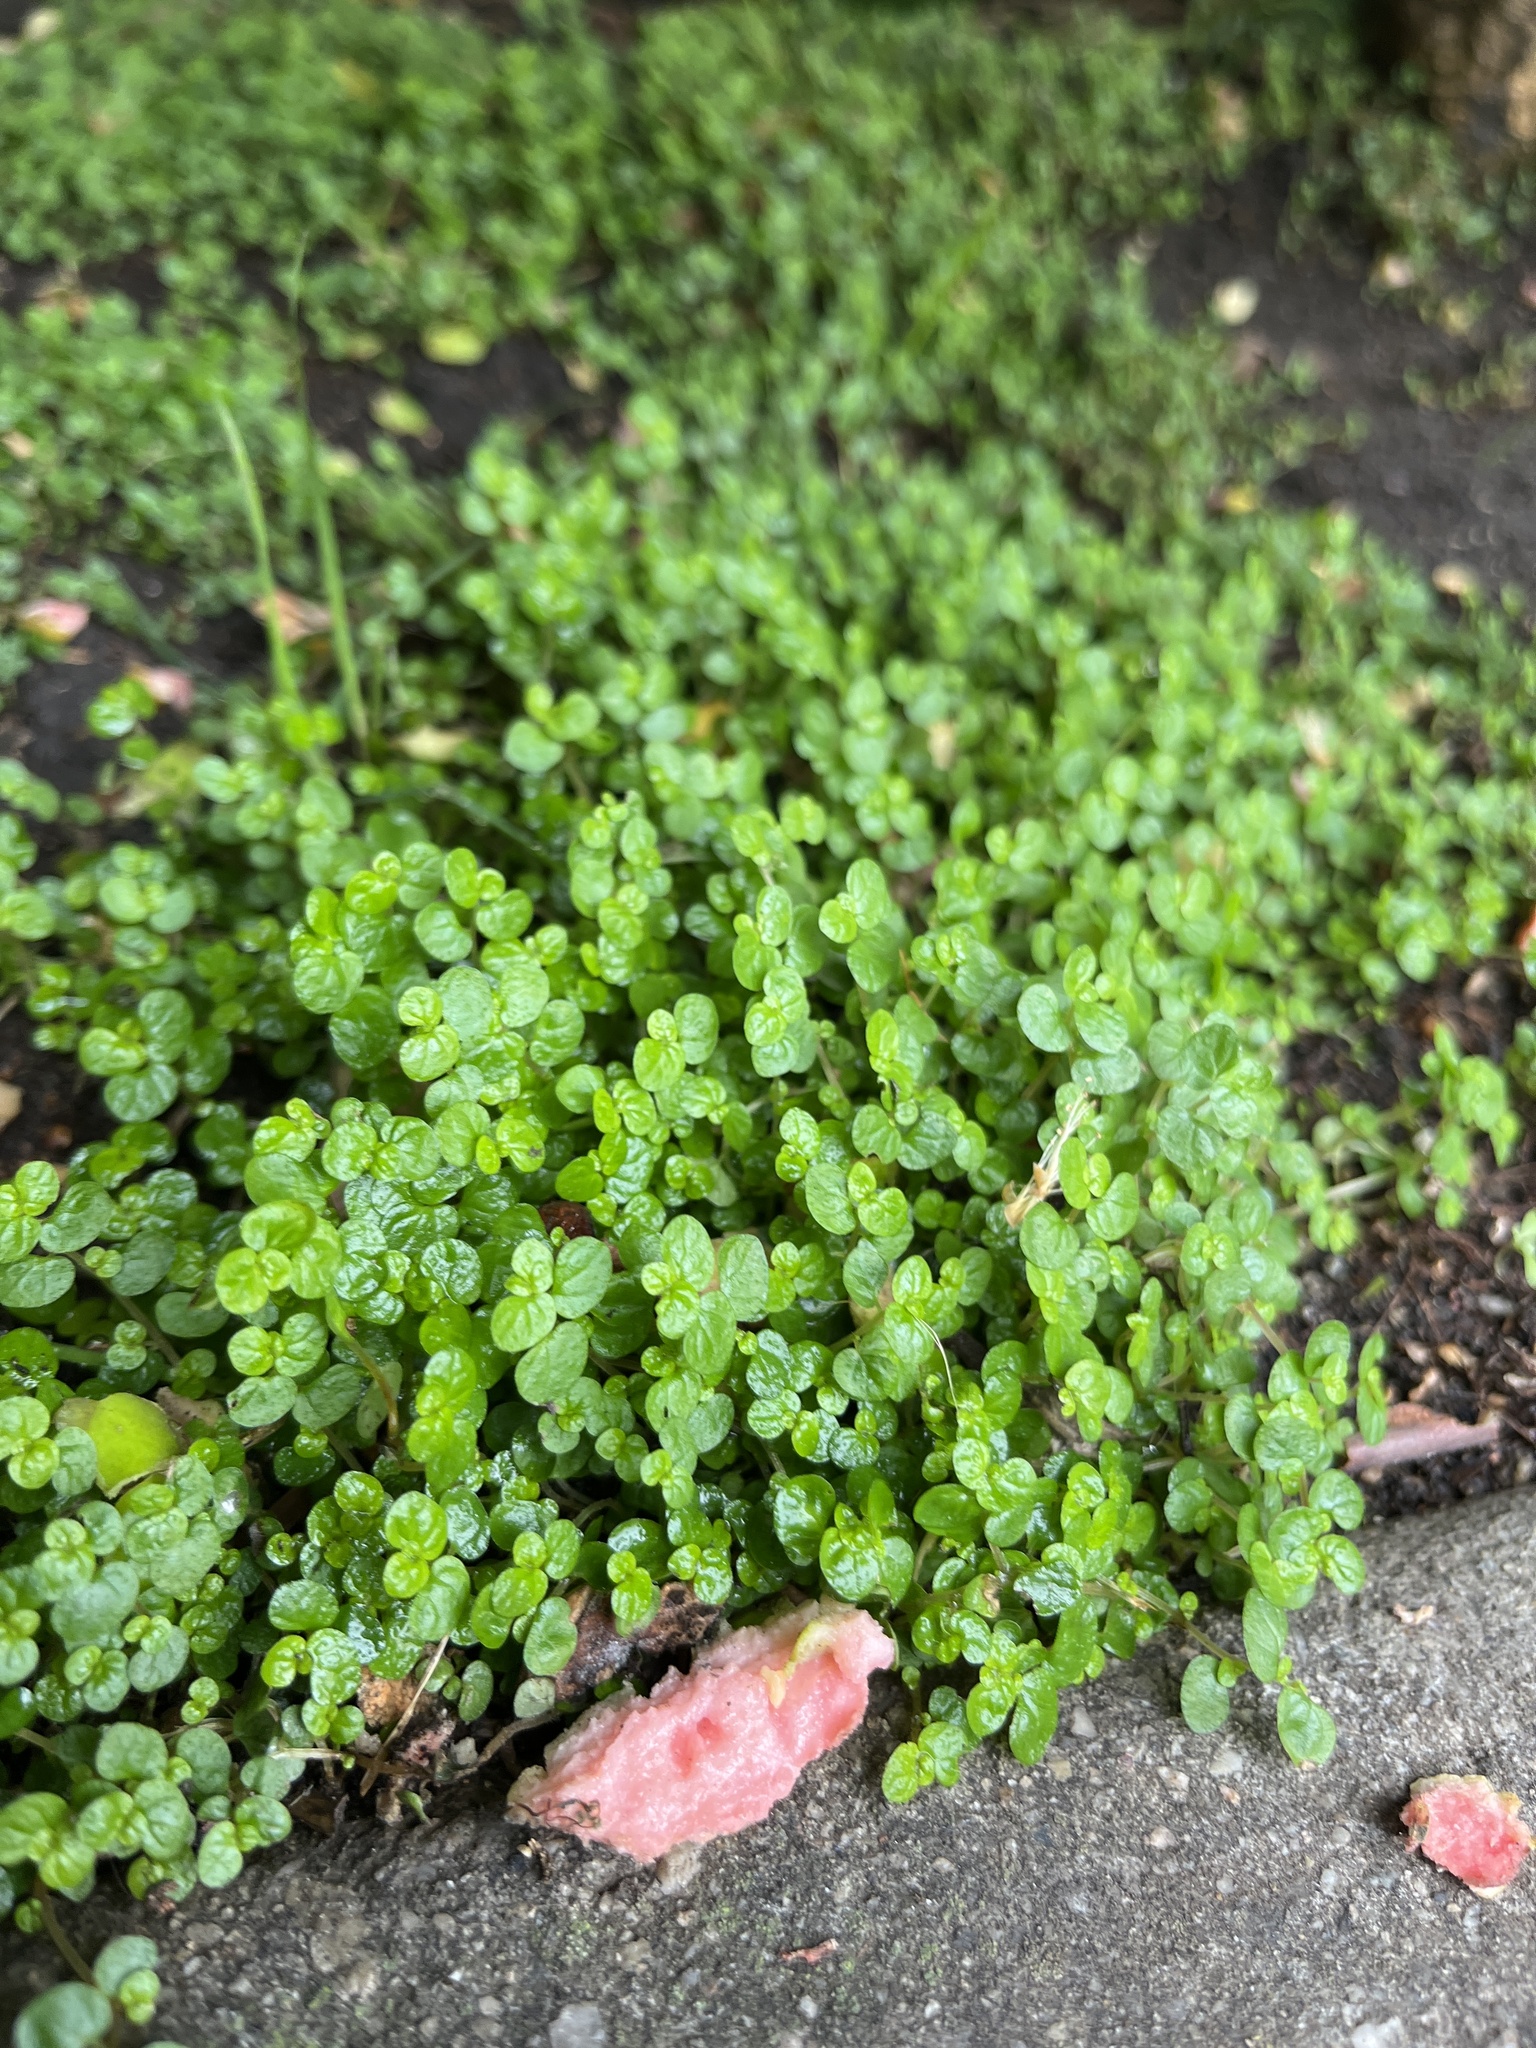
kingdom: Plantae
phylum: Tracheophyta
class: Magnoliopsida
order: Rosales
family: Urticaceae
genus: Soleirolia
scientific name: Soleirolia soleirolii
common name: Mind-your-own-business
